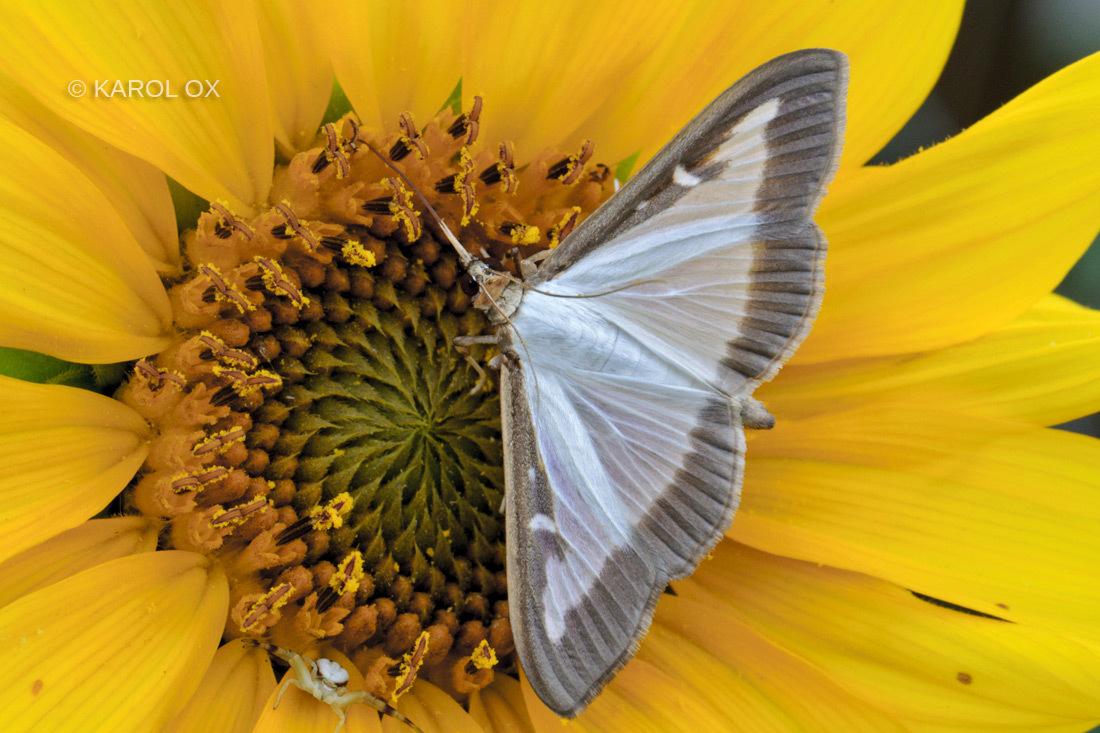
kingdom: Animalia
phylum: Arthropoda
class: Insecta
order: Lepidoptera
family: Crambidae
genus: Cydalima
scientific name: Cydalima perspectalis
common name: Box tree moth
